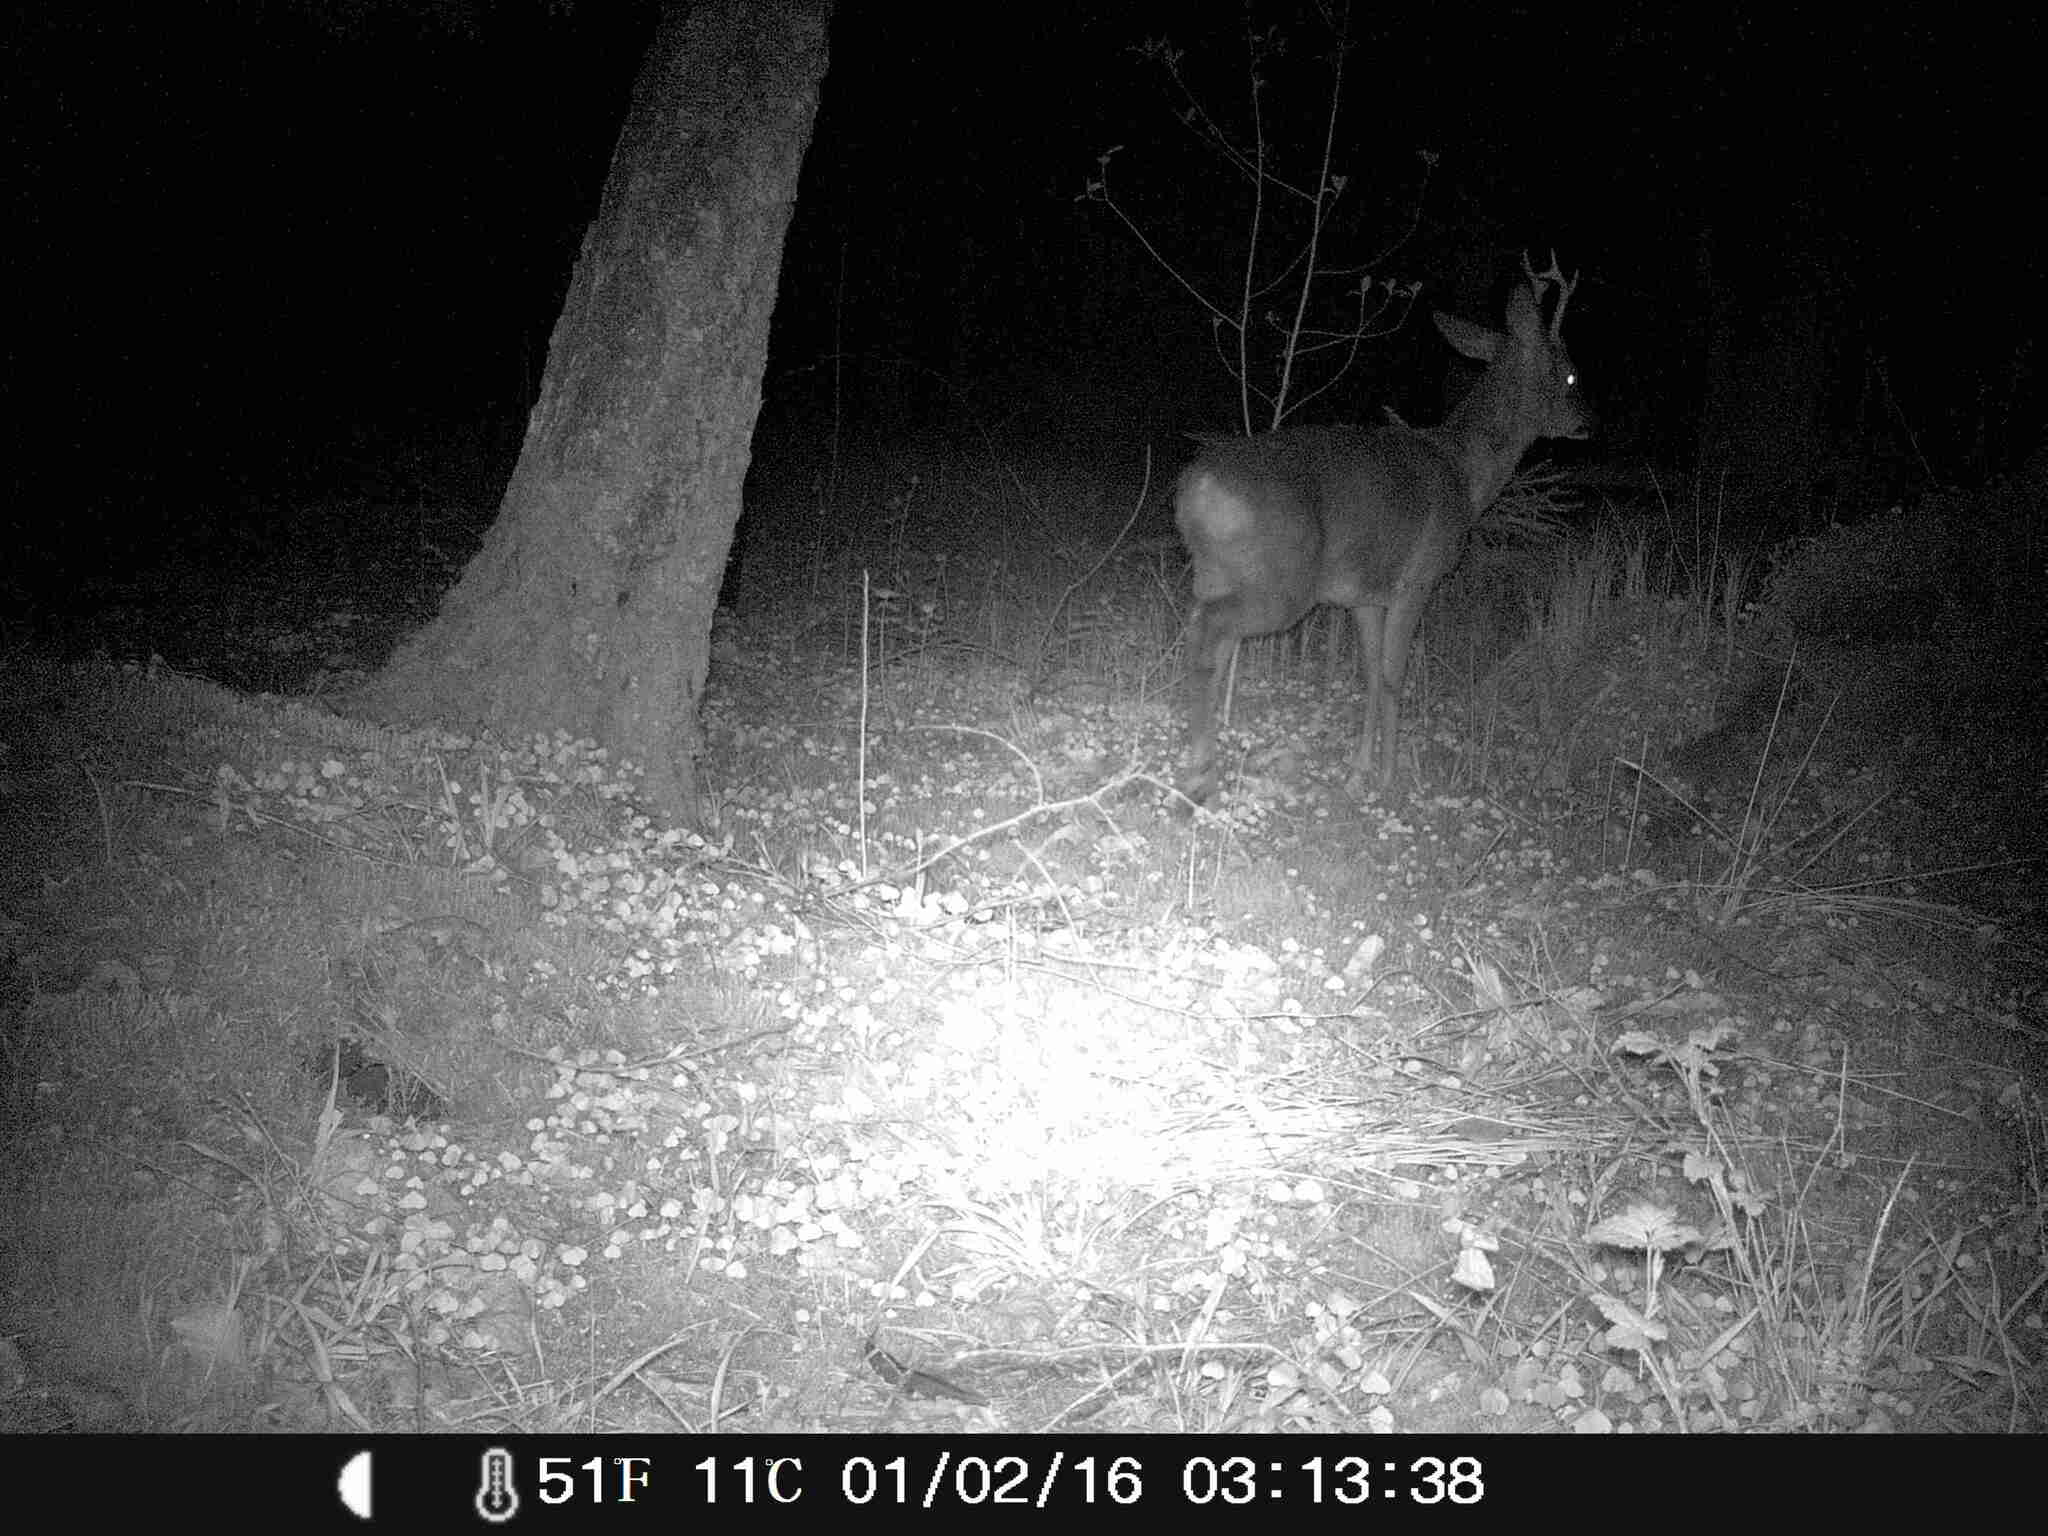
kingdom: Animalia
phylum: Chordata
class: Mammalia
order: Artiodactyla
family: Cervidae
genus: Capreolus
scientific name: Capreolus capreolus
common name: Western roe deer
